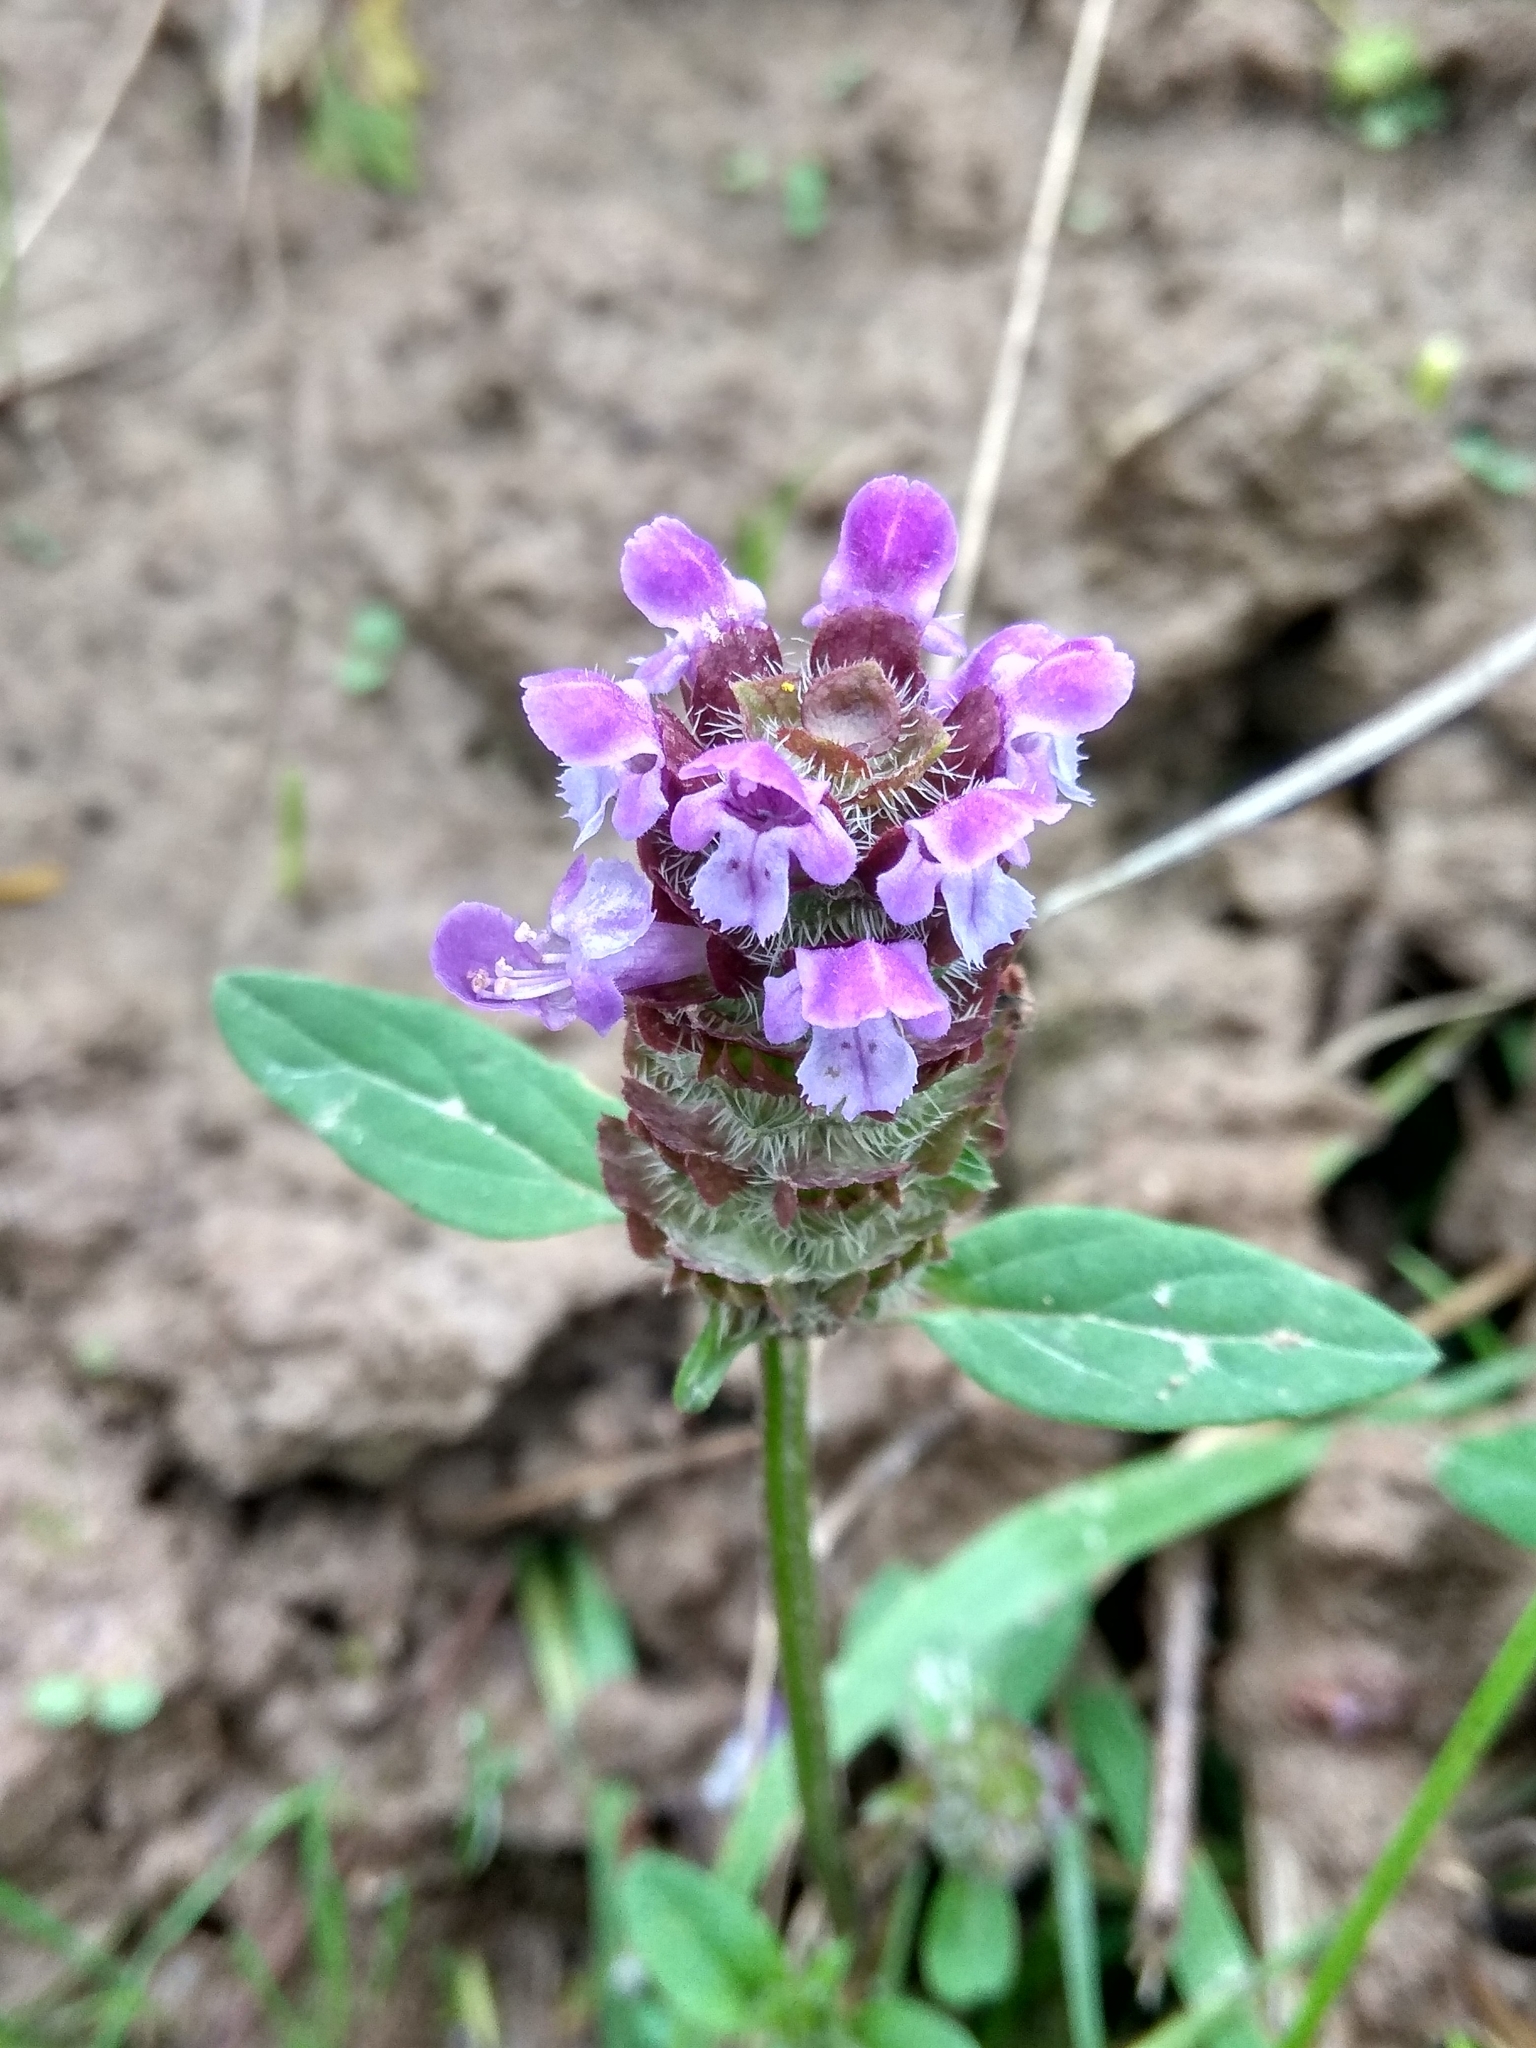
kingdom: Plantae
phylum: Tracheophyta
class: Magnoliopsida
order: Lamiales
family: Lamiaceae
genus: Prunella
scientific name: Prunella vulgaris
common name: Heal-all
